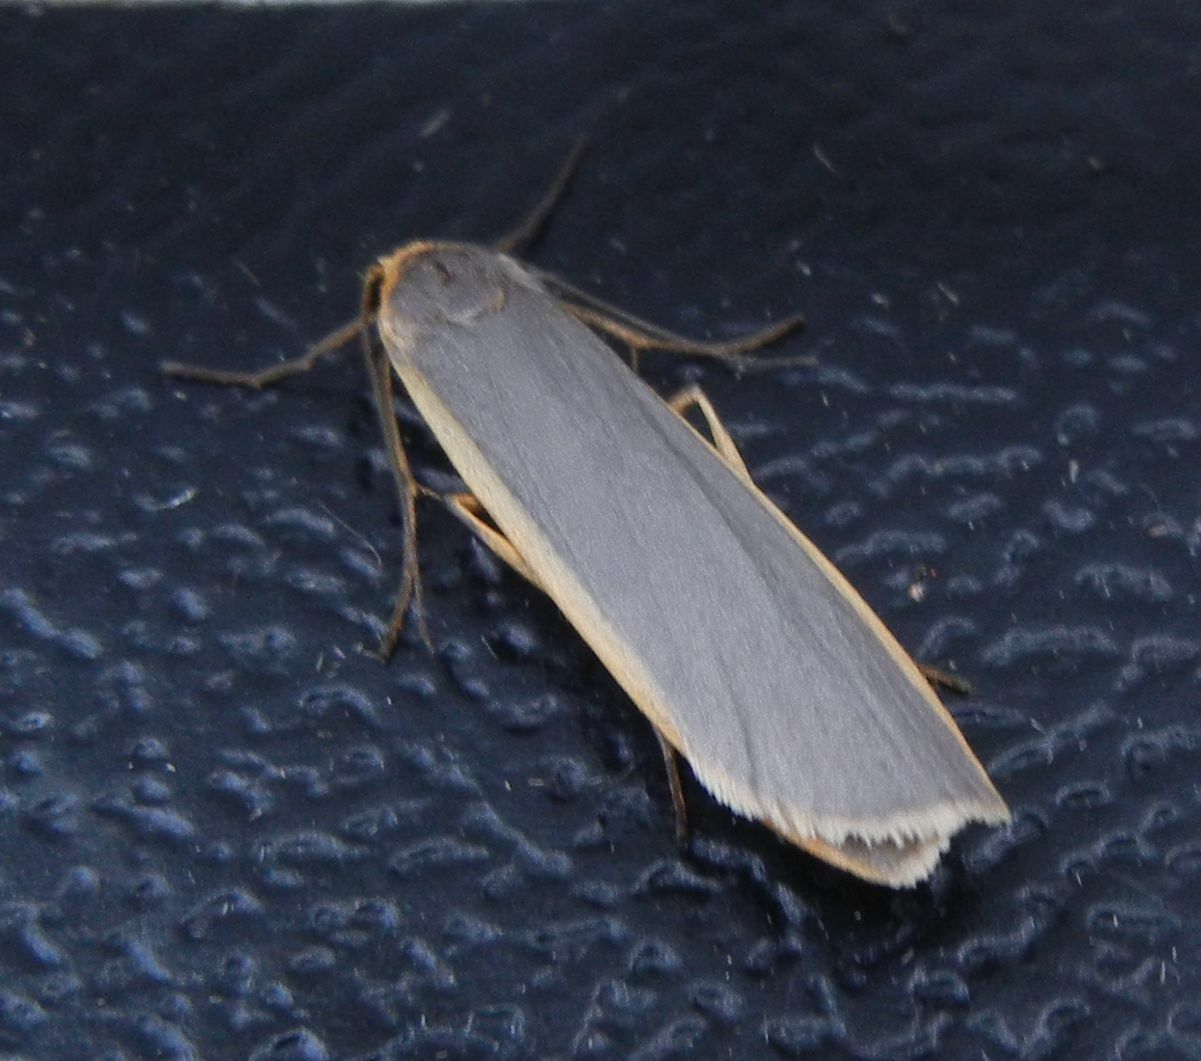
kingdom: Animalia
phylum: Arthropoda
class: Insecta
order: Lepidoptera
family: Erebidae
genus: Nyea
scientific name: Nyea lurideola
